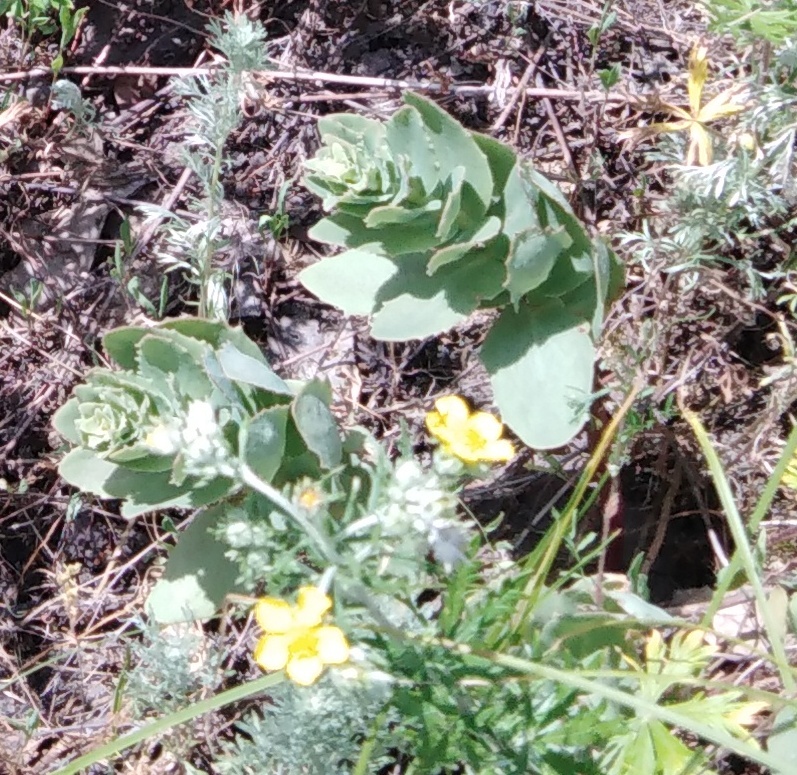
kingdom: Plantae
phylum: Tracheophyta
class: Magnoliopsida
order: Saxifragales
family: Crassulaceae
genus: Hylotelephium
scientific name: Hylotelephium maximum
